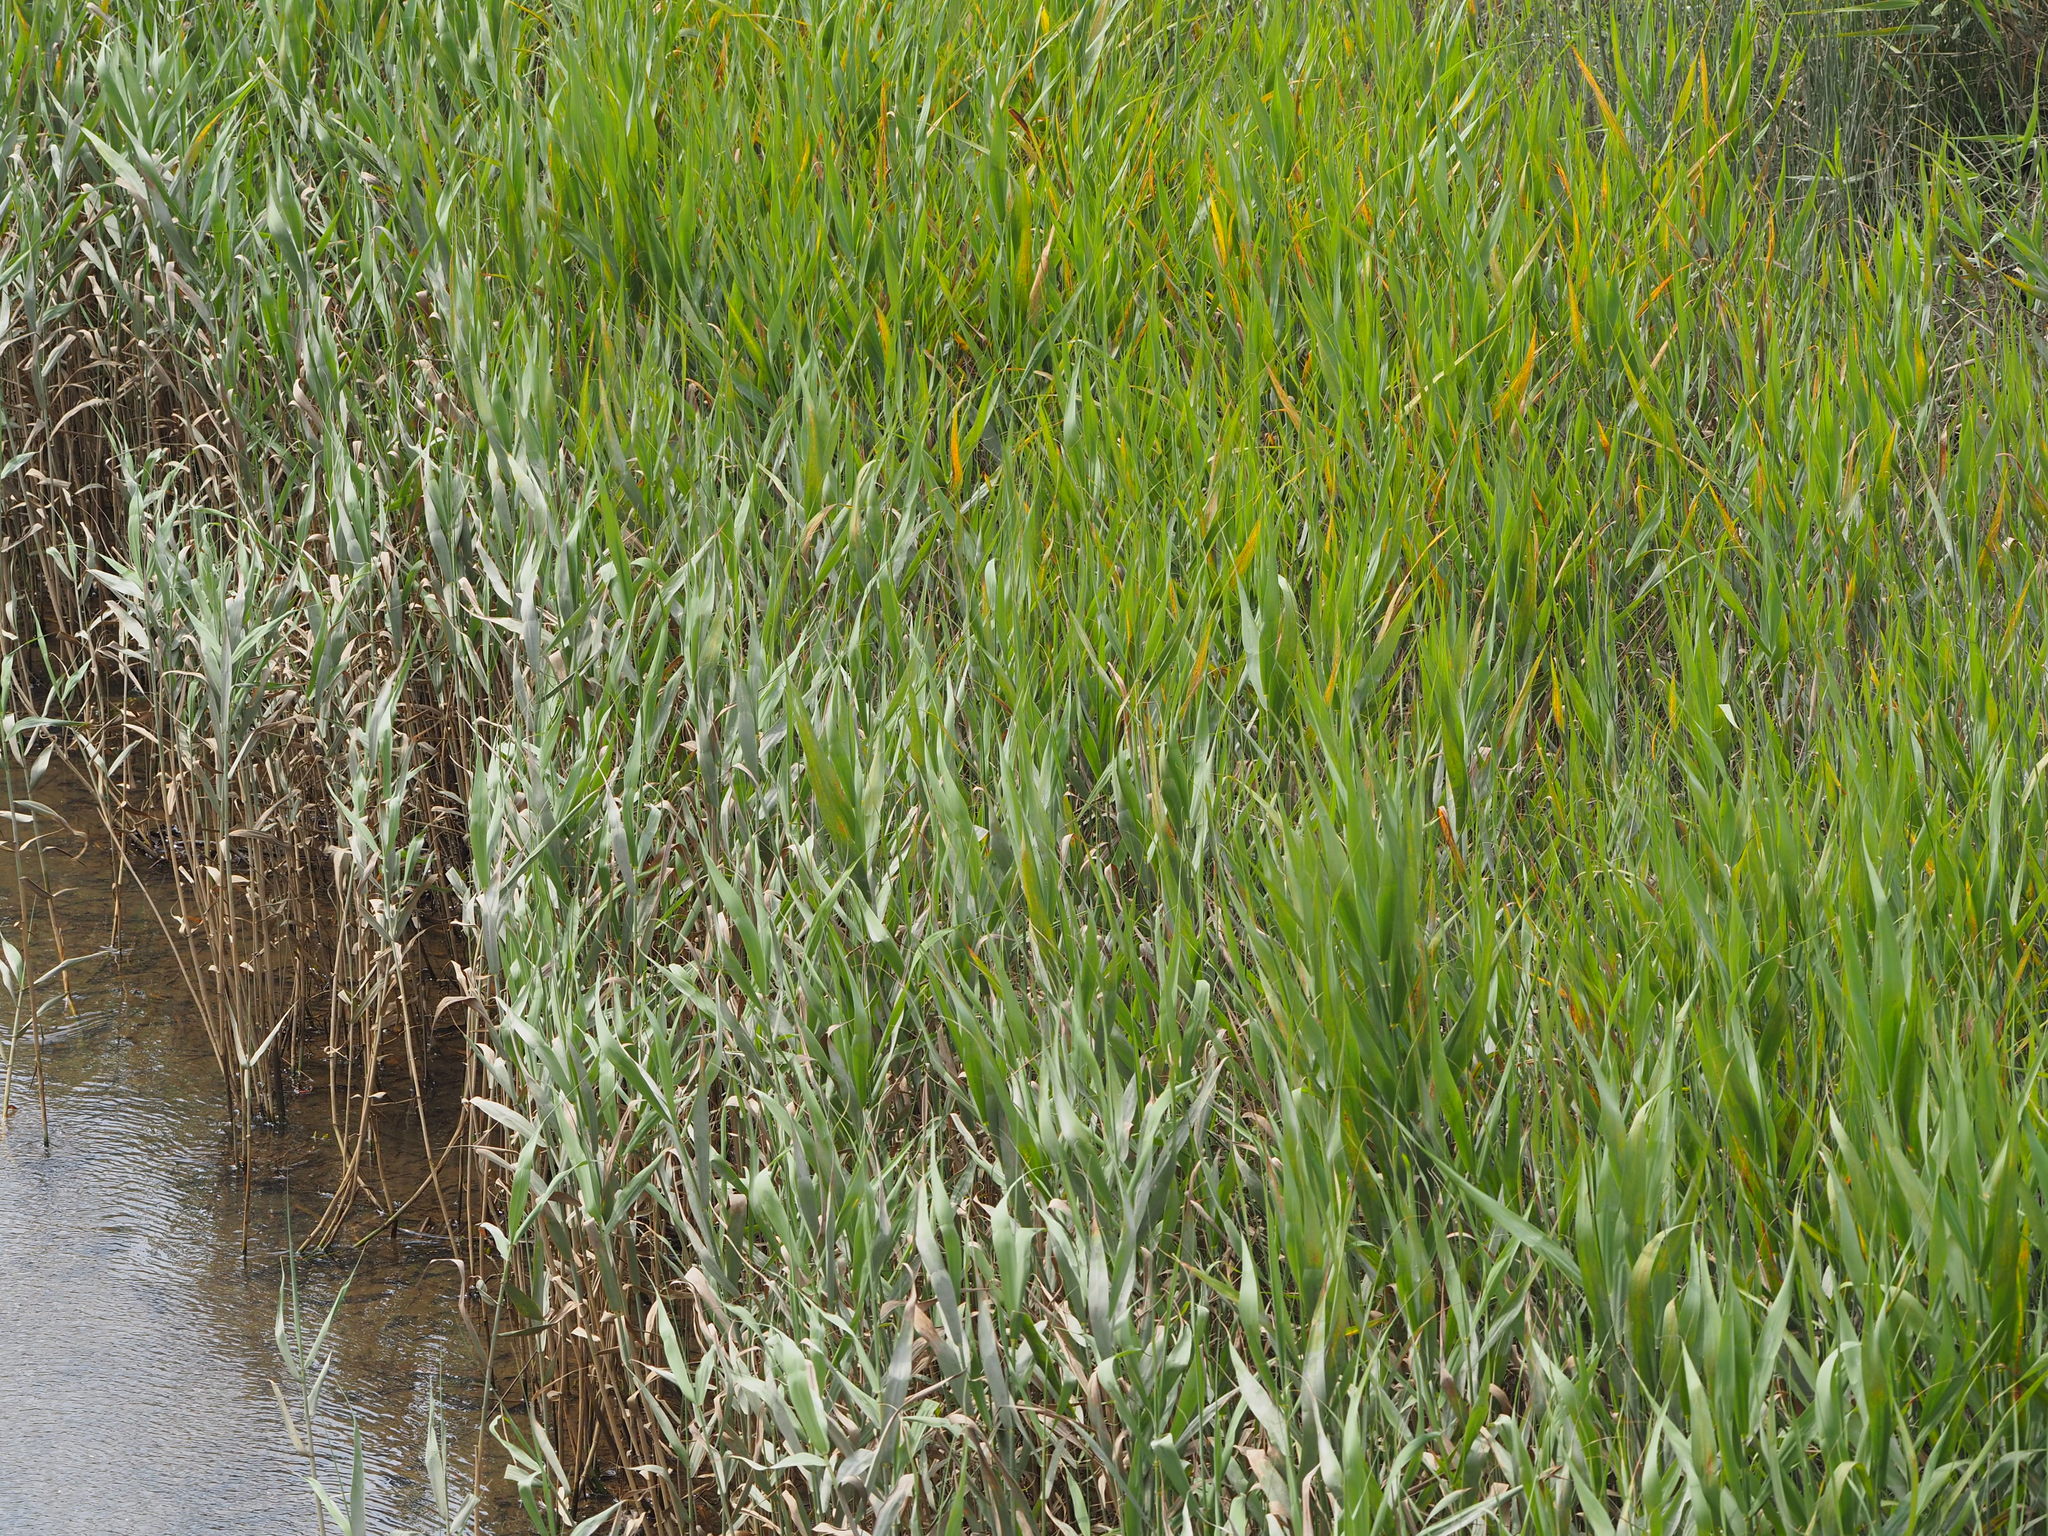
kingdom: Plantae
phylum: Tracheophyta
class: Liliopsida
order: Poales
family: Poaceae
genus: Phragmites
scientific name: Phragmites australis
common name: Common reed
